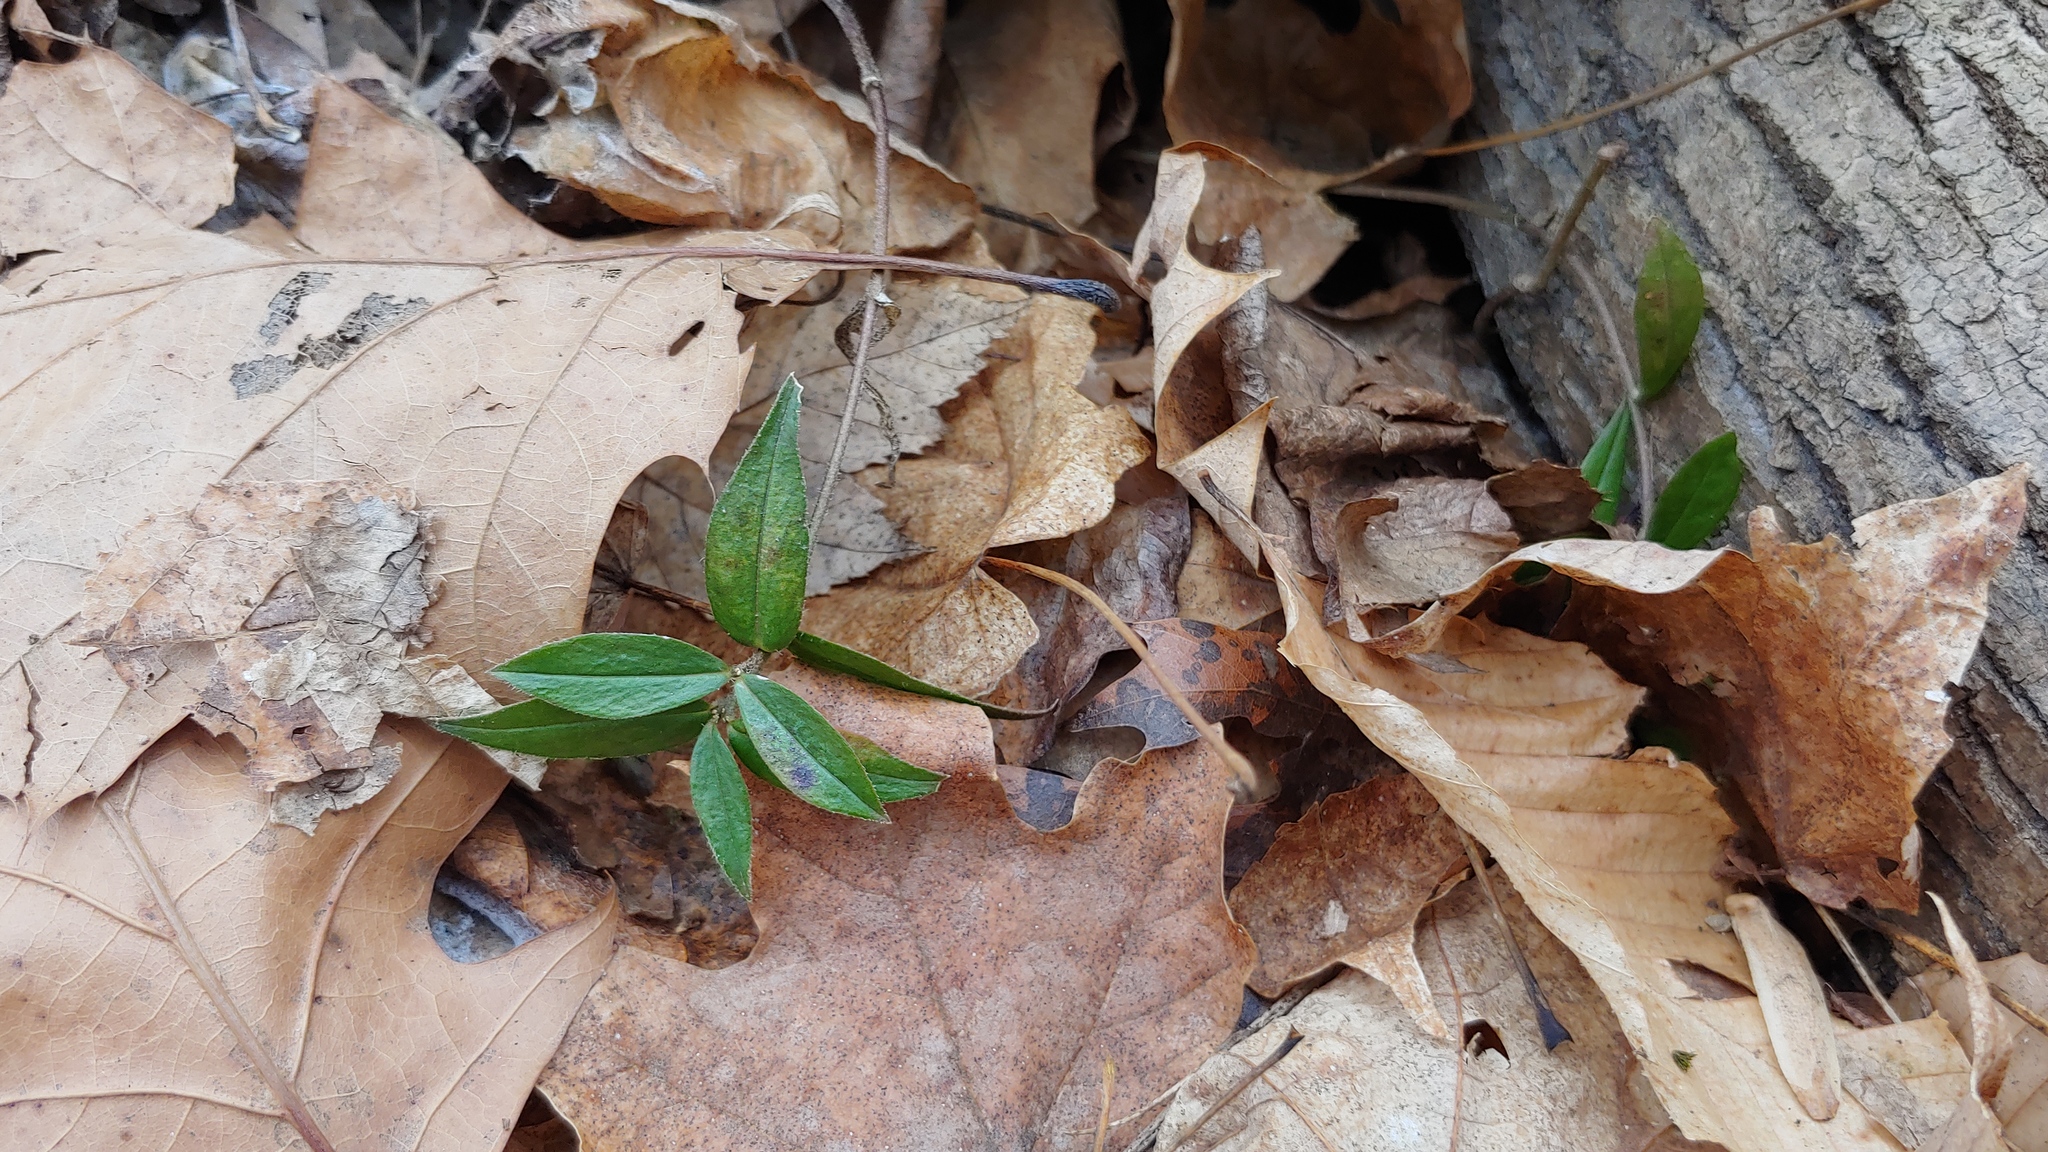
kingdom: Plantae
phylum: Tracheophyta
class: Magnoliopsida
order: Ericales
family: Polemoniaceae
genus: Phlox
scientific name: Phlox divaricata
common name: Blue phlox
